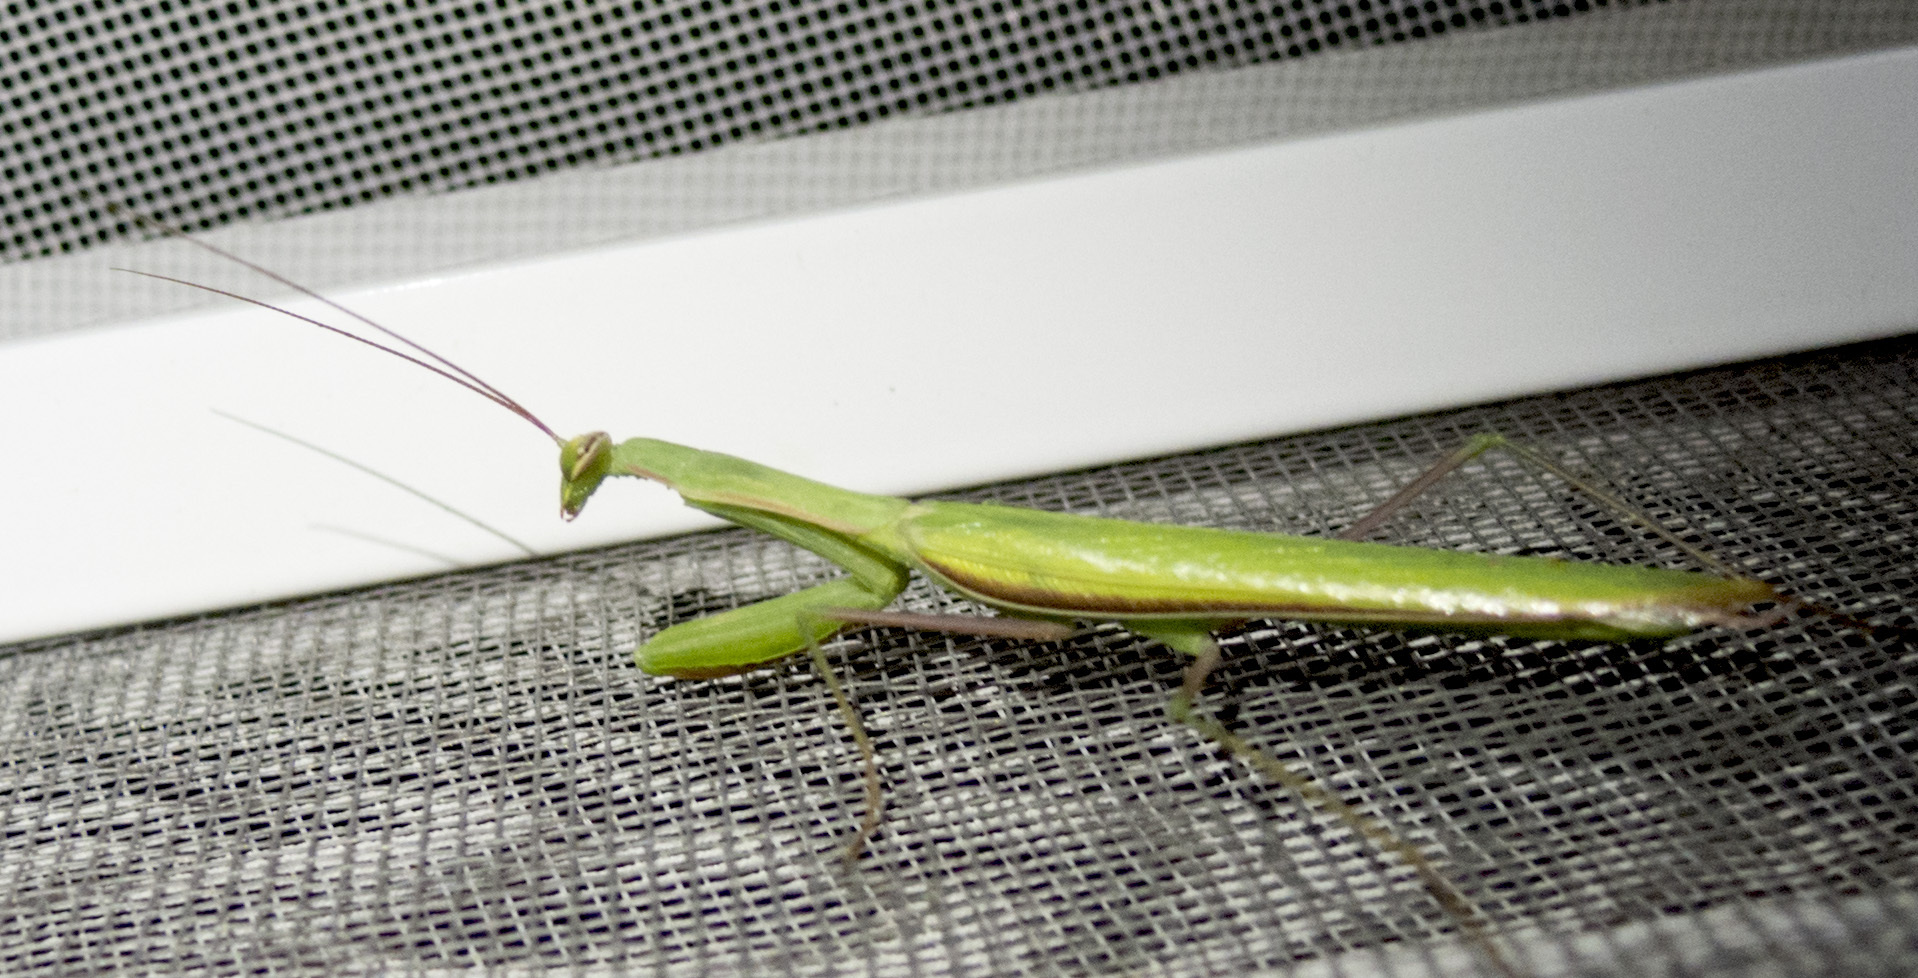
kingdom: Animalia
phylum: Arthropoda
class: Insecta
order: Mantodea
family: Mantidae
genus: Mantis
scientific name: Mantis religiosa
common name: Praying mantis
